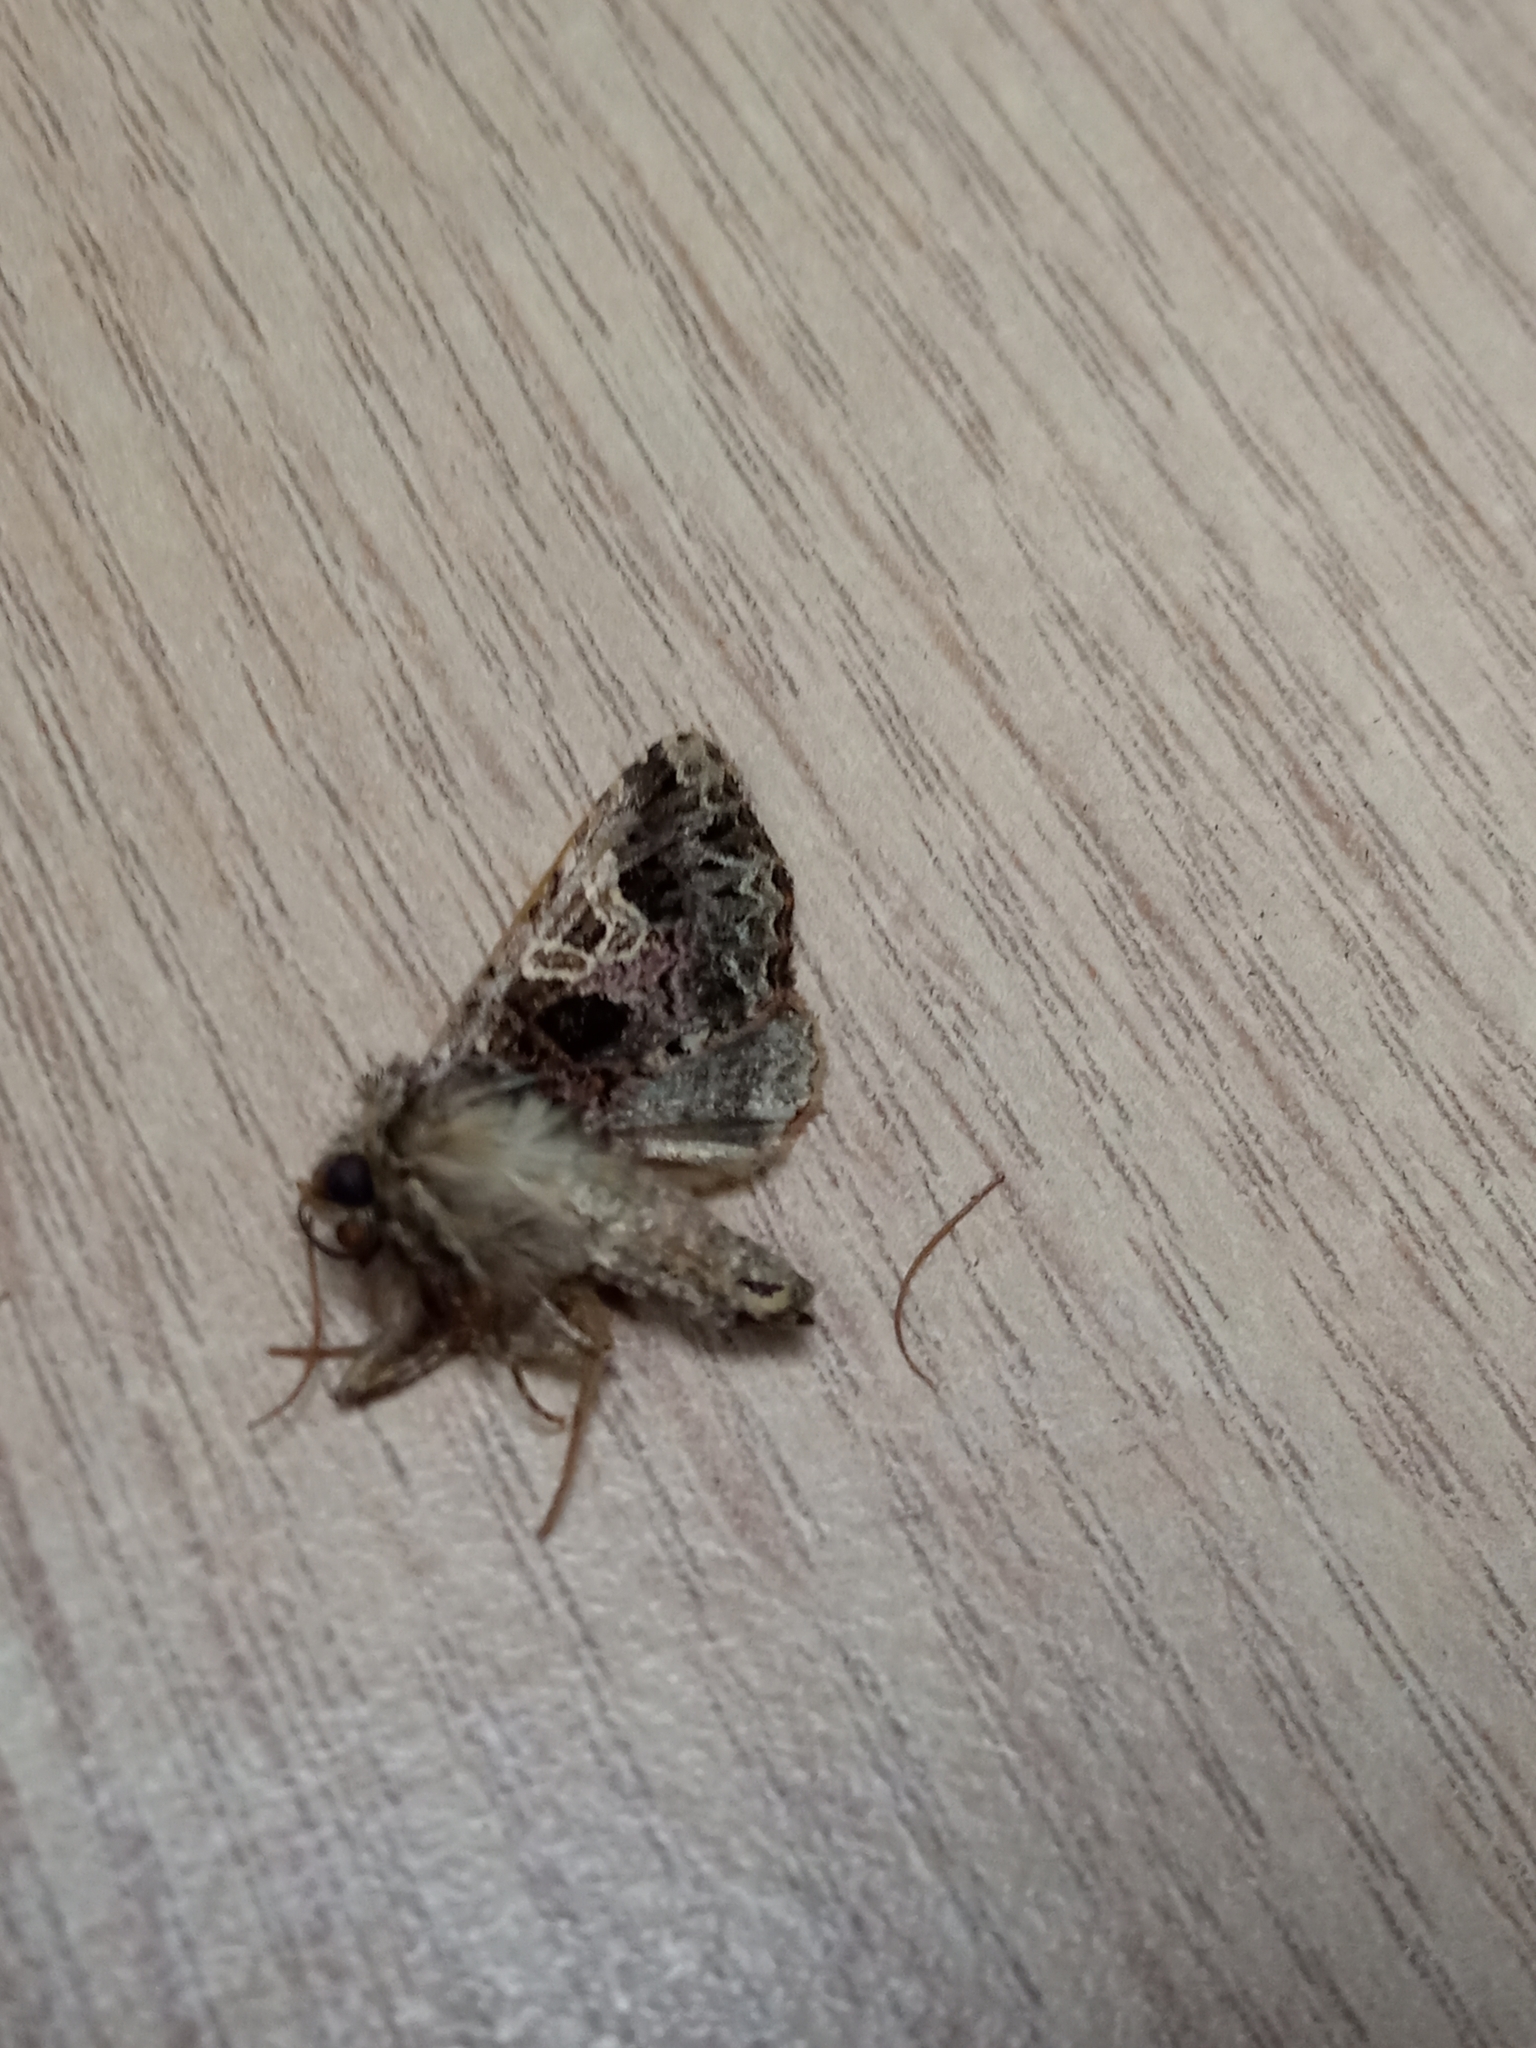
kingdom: Animalia
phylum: Arthropoda
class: Insecta
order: Lepidoptera
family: Noctuidae
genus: Sideridis
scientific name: Sideridis rivularis
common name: Campion
